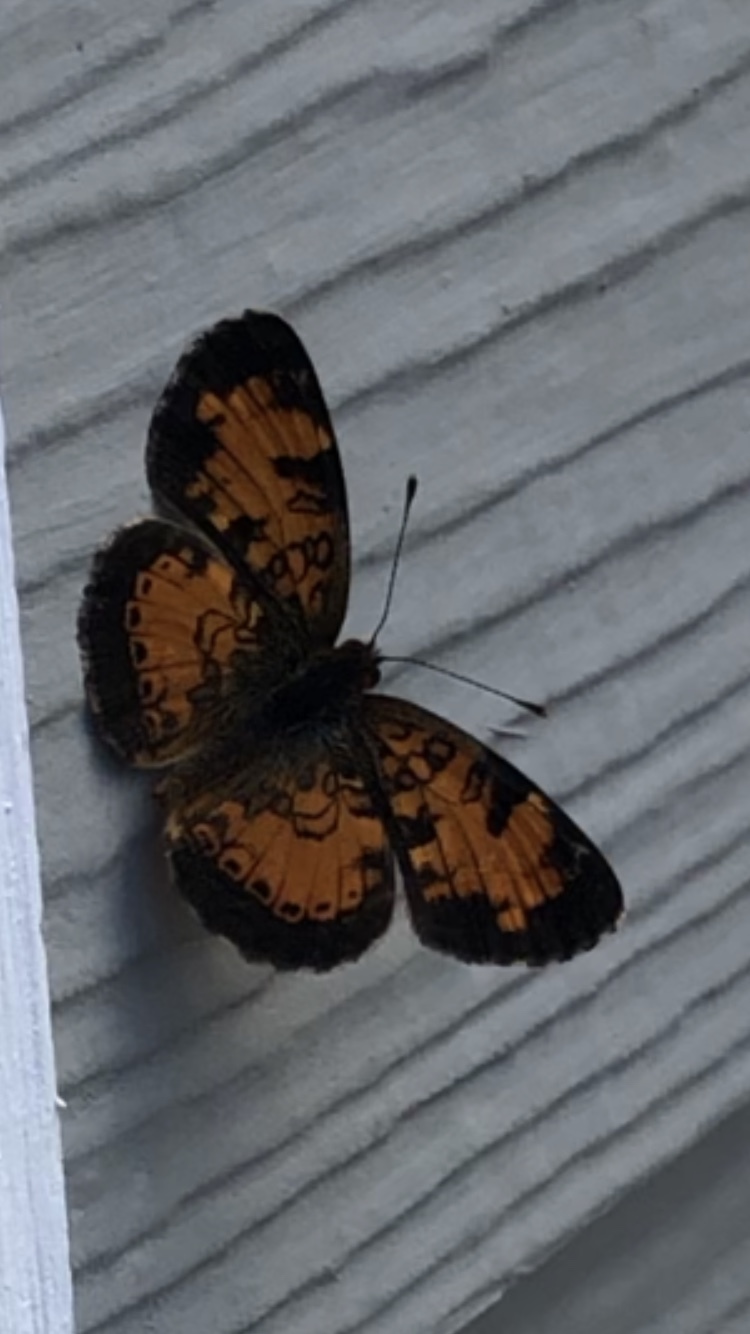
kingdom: Animalia
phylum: Arthropoda
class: Insecta
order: Lepidoptera
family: Nymphalidae
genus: Phyciodes
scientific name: Phyciodes tharos
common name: Pearl crescent
